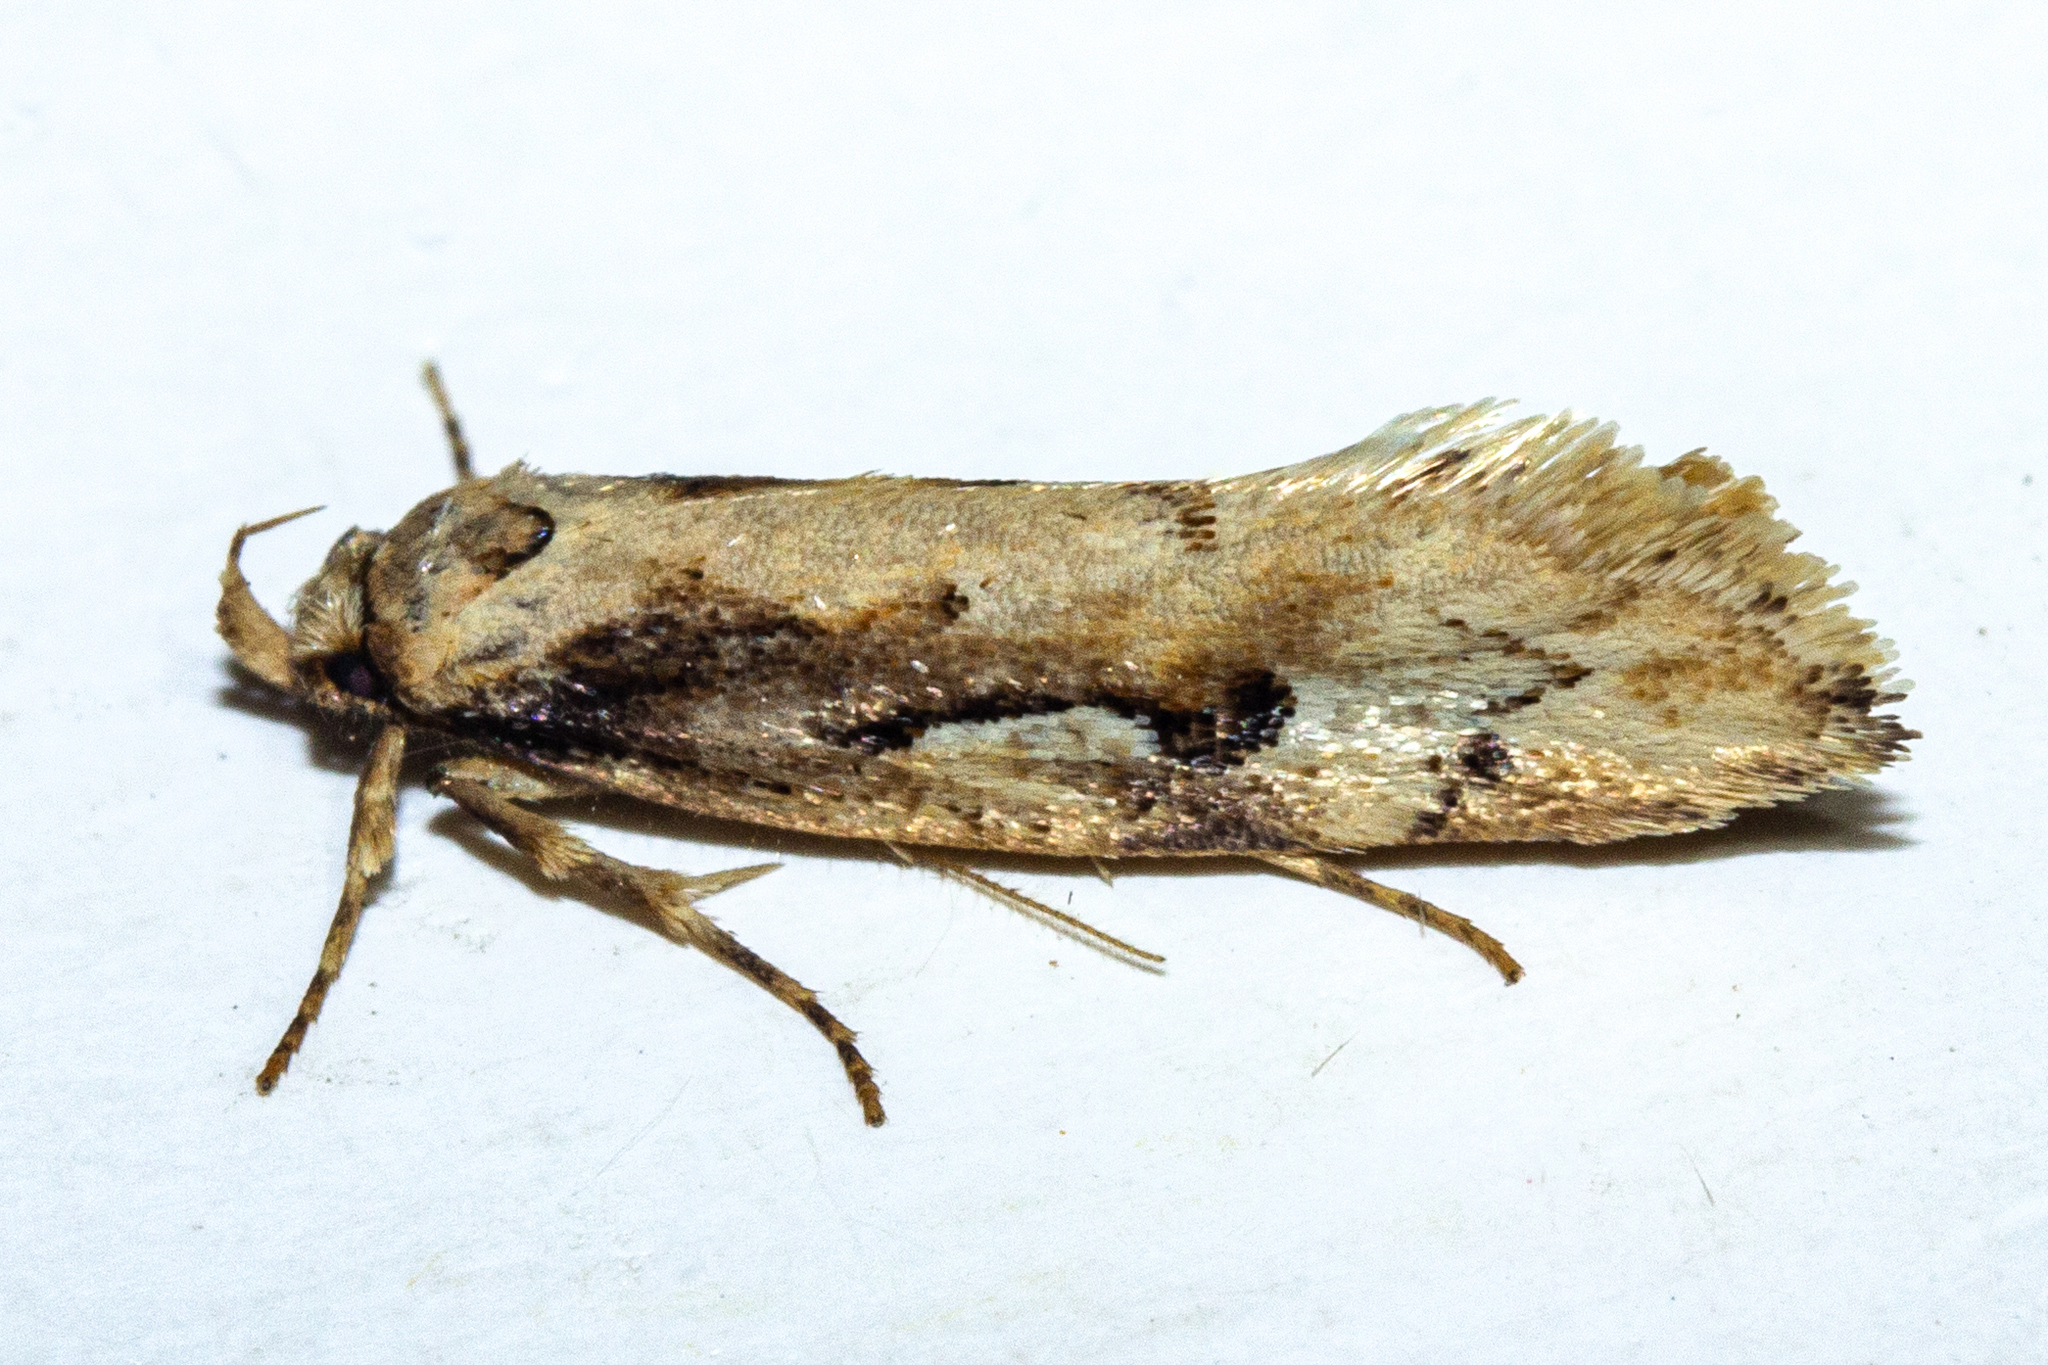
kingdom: Animalia
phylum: Arthropoda
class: Insecta
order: Lepidoptera
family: Oecophoridae
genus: Atomotricha
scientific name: Atomotricha prospiciens
